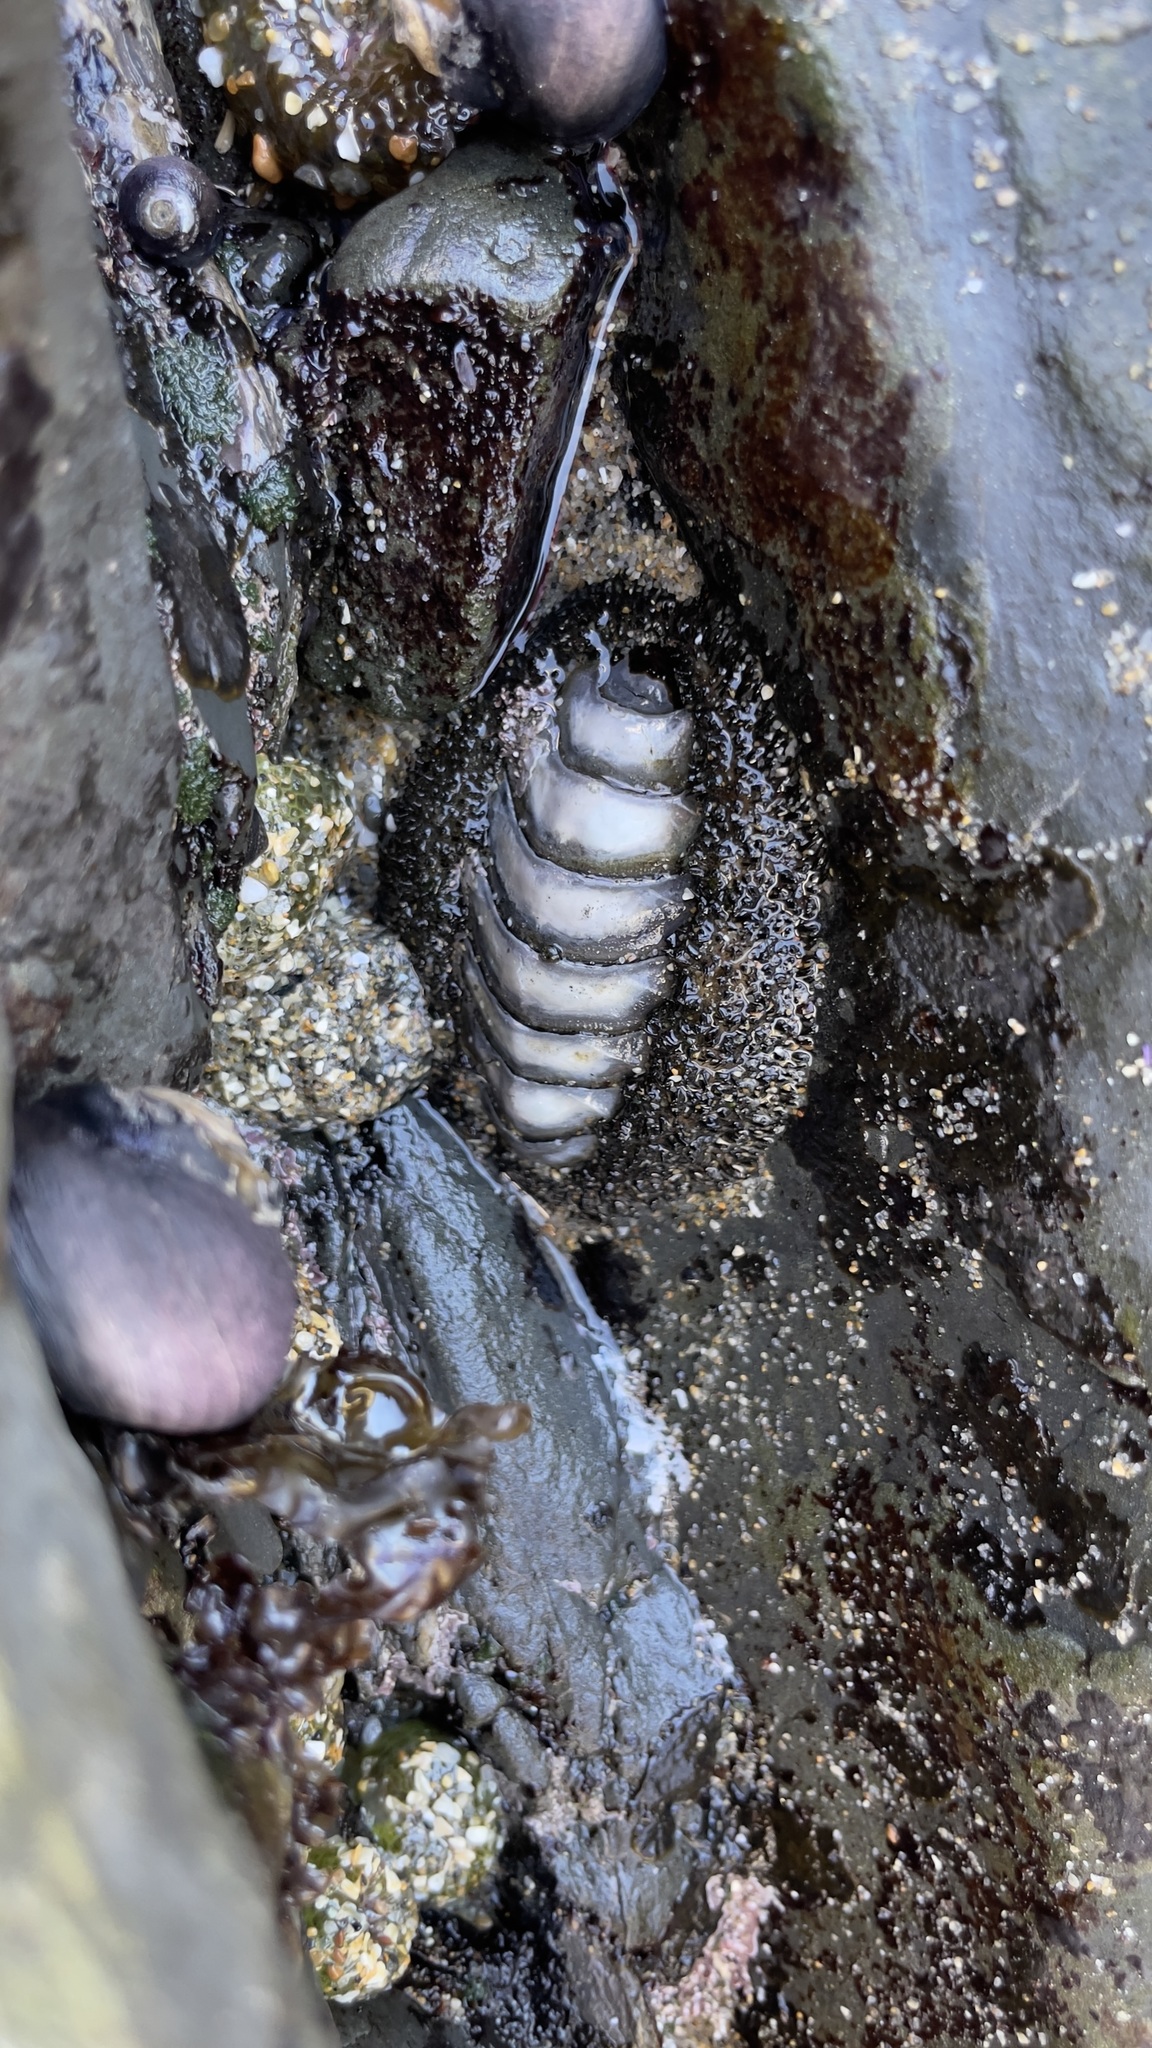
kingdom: Animalia
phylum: Mollusca
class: Polyplacophora
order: Chitonida
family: Mopaliidae
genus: Mopalia
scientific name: Mopalia muscosa
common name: Mossy chiton
